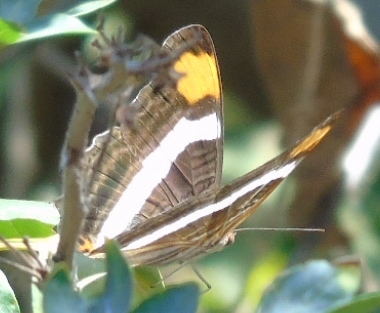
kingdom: Animalia
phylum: Arthropoda
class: Insecta
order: Lepidoptera
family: Nymphalidae
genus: Limenitis
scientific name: Limenitis fessonia
